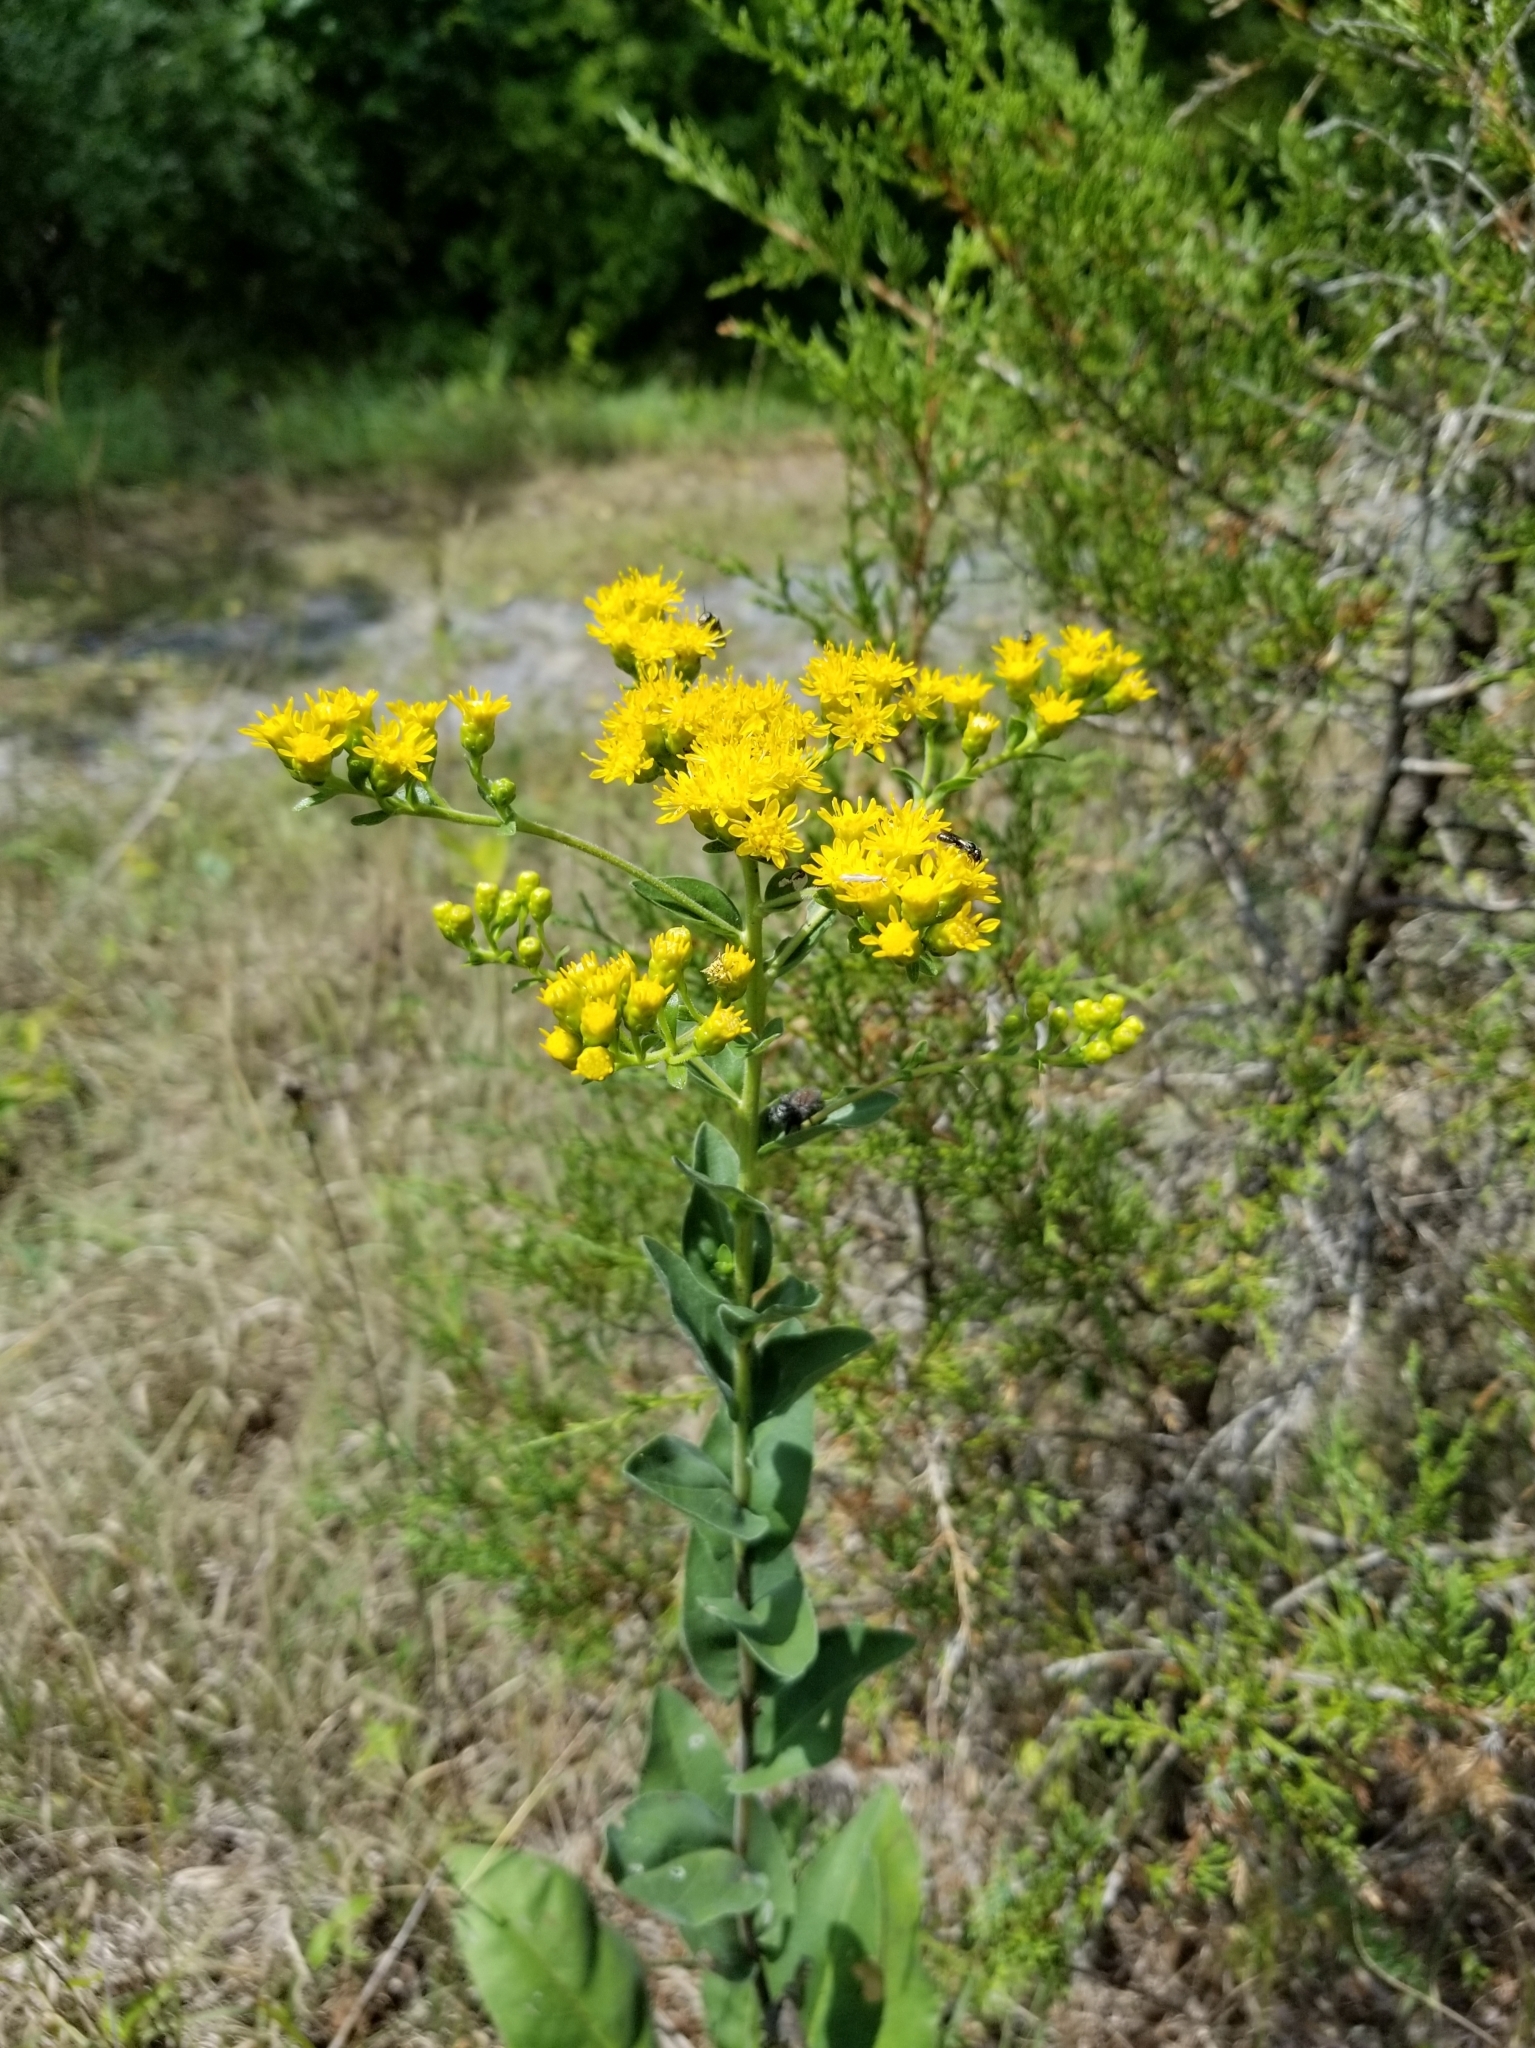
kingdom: Plantae
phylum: Tracheophyta
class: Magnoliopsida
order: Asterales
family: Asteraceae
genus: Solidago
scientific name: Solidago rigida
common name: Rigid goldenrod
